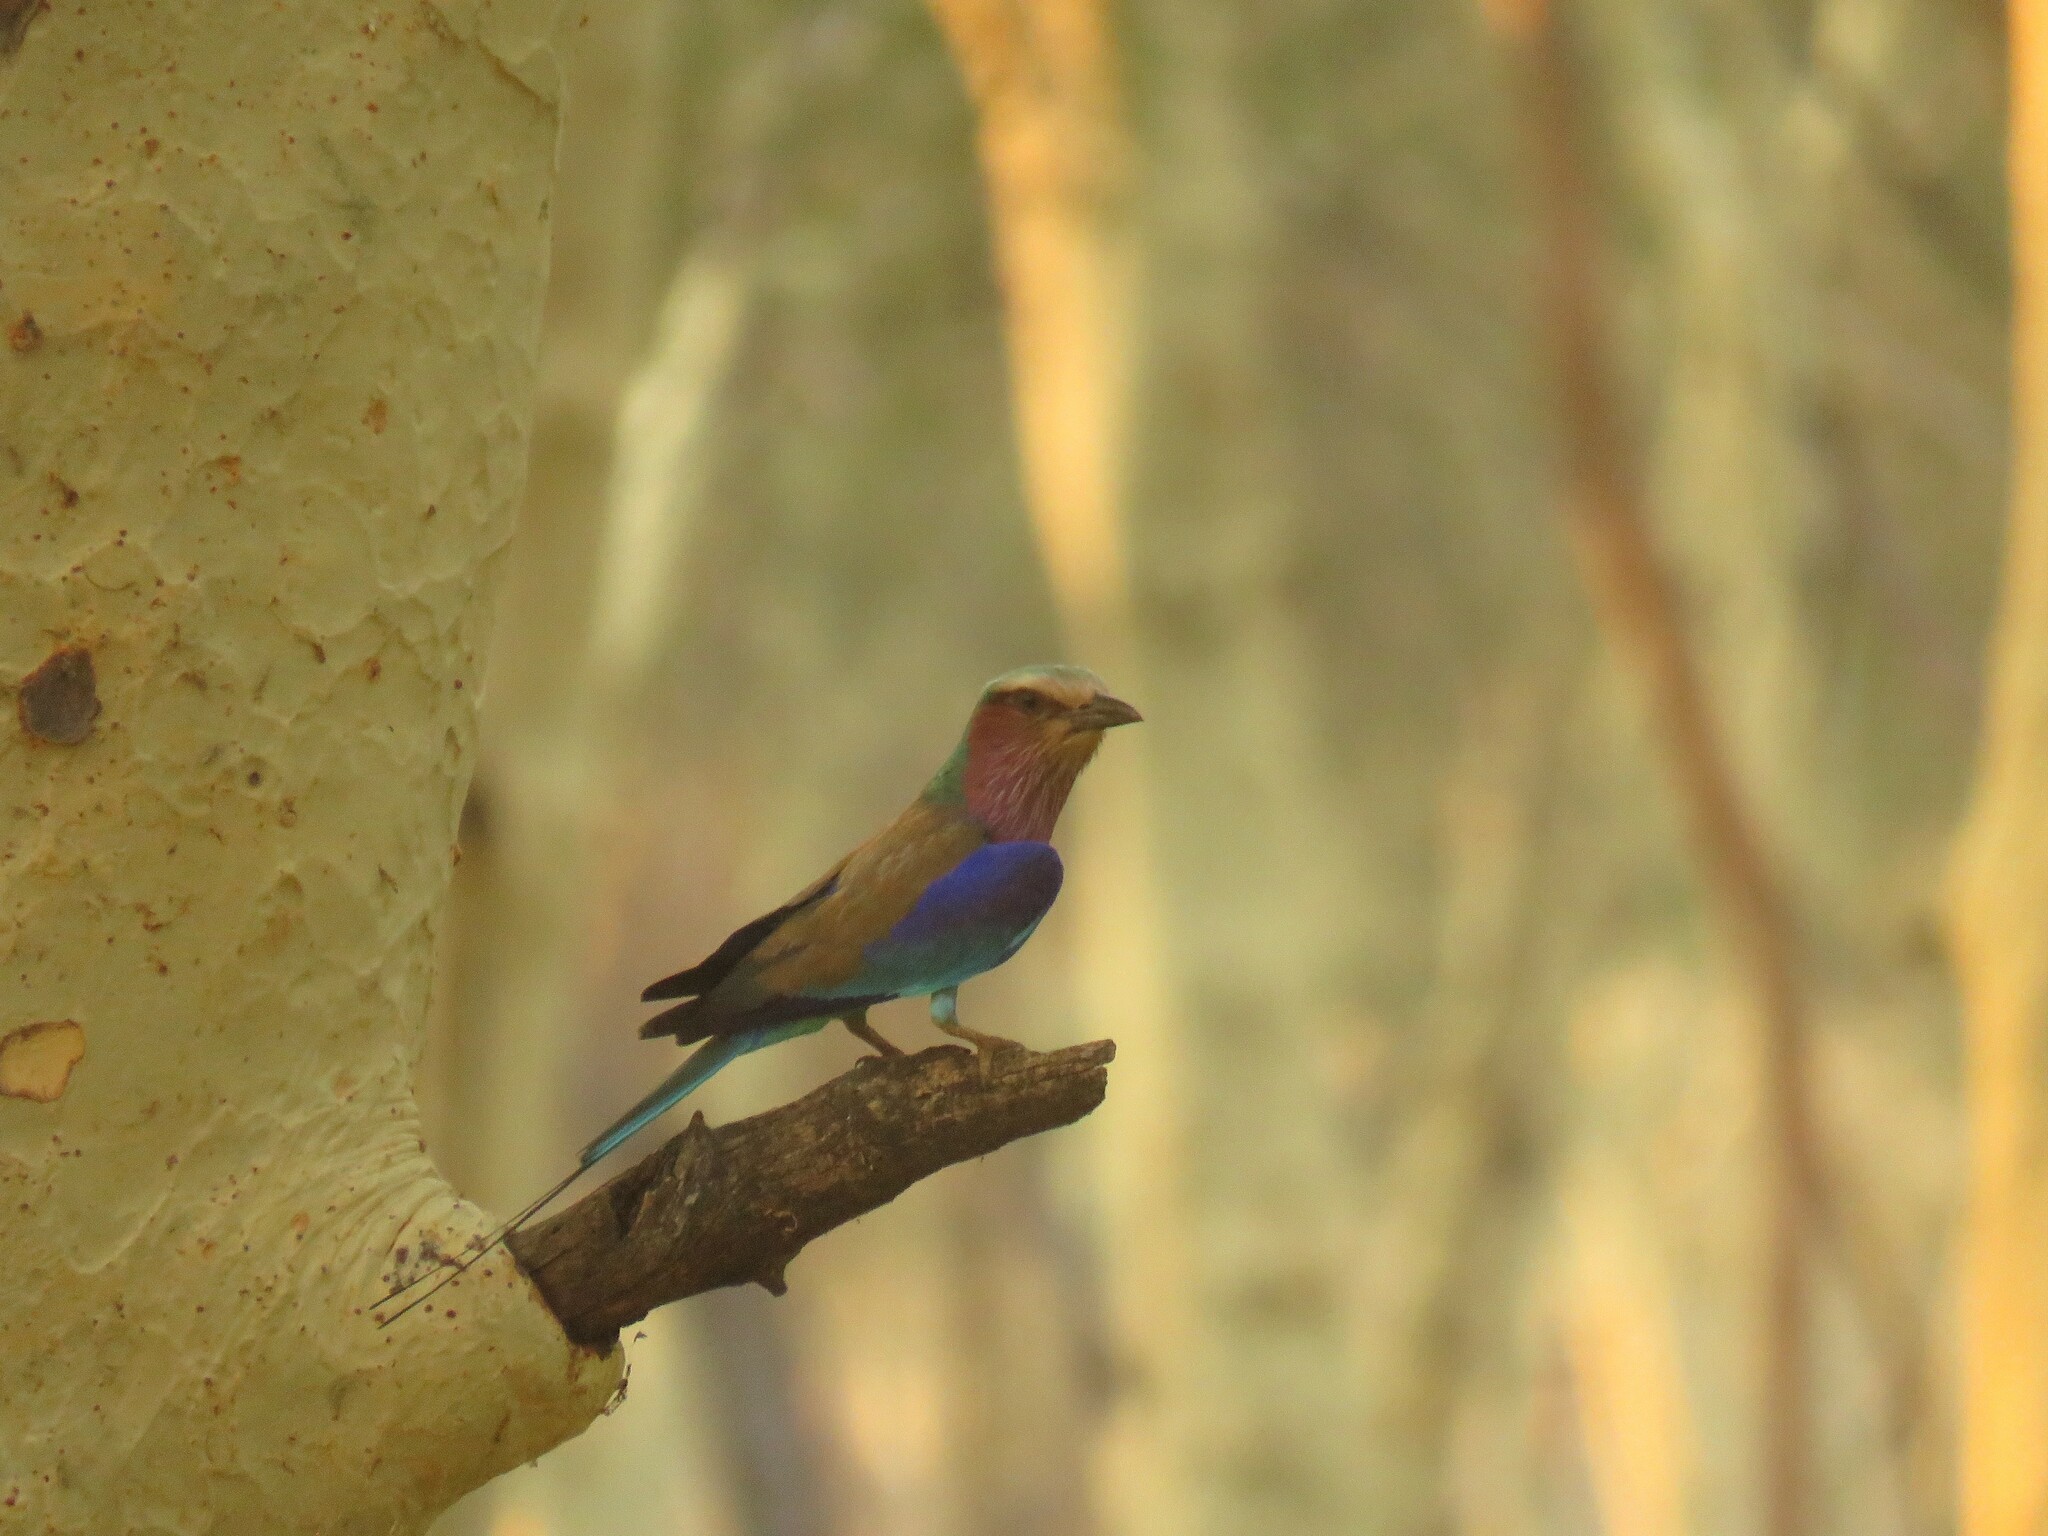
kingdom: Animalia
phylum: Chordata
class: Aves
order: Coraciiformes
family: Coraciidae
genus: Coracias
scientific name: Coracias caudatus
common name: Lilac-breasted roller
